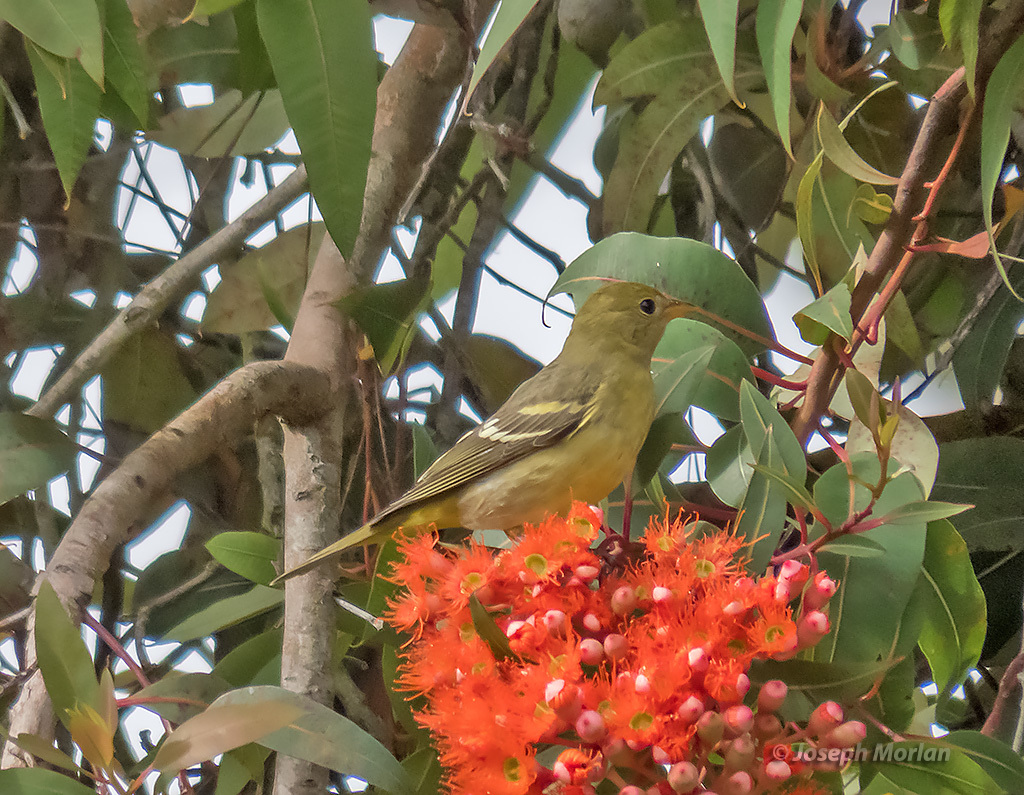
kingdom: Animalia
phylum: Chordata
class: Aves
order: Passeriformes
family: Cardinalidae
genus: Piranga
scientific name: Piranga ludoviciana
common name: Western tanager
